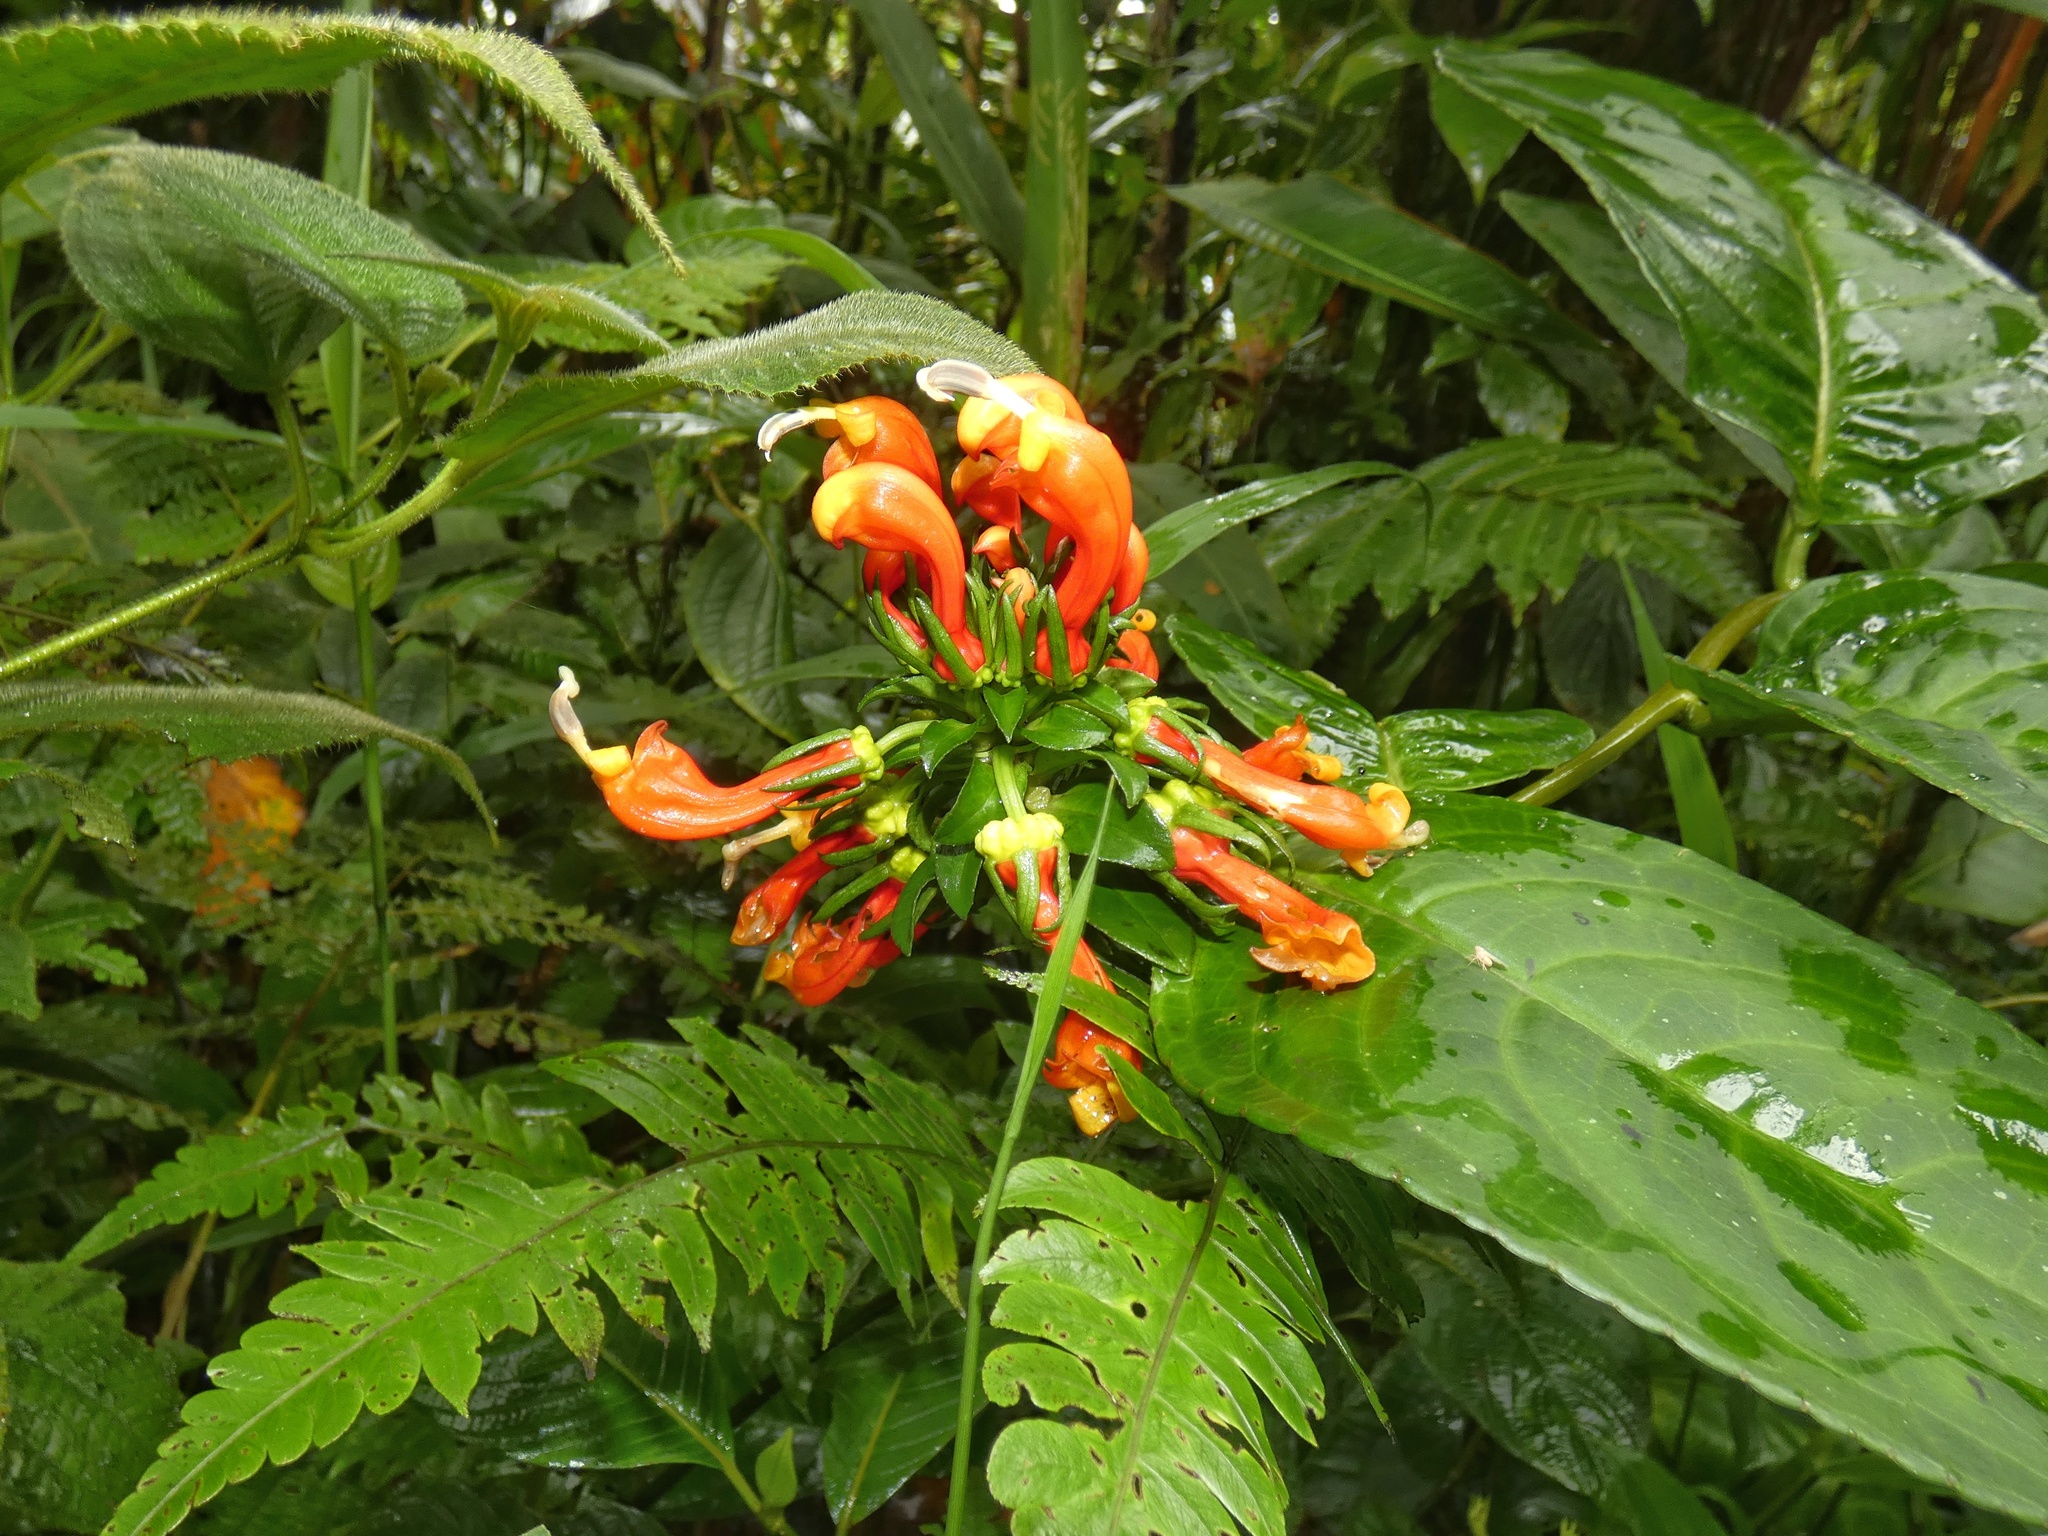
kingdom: Plantae
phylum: Tracheophyta
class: Magnoliopsida
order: Asterales
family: Campanulaceae
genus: Centropogon
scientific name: Centropogon granulosus
